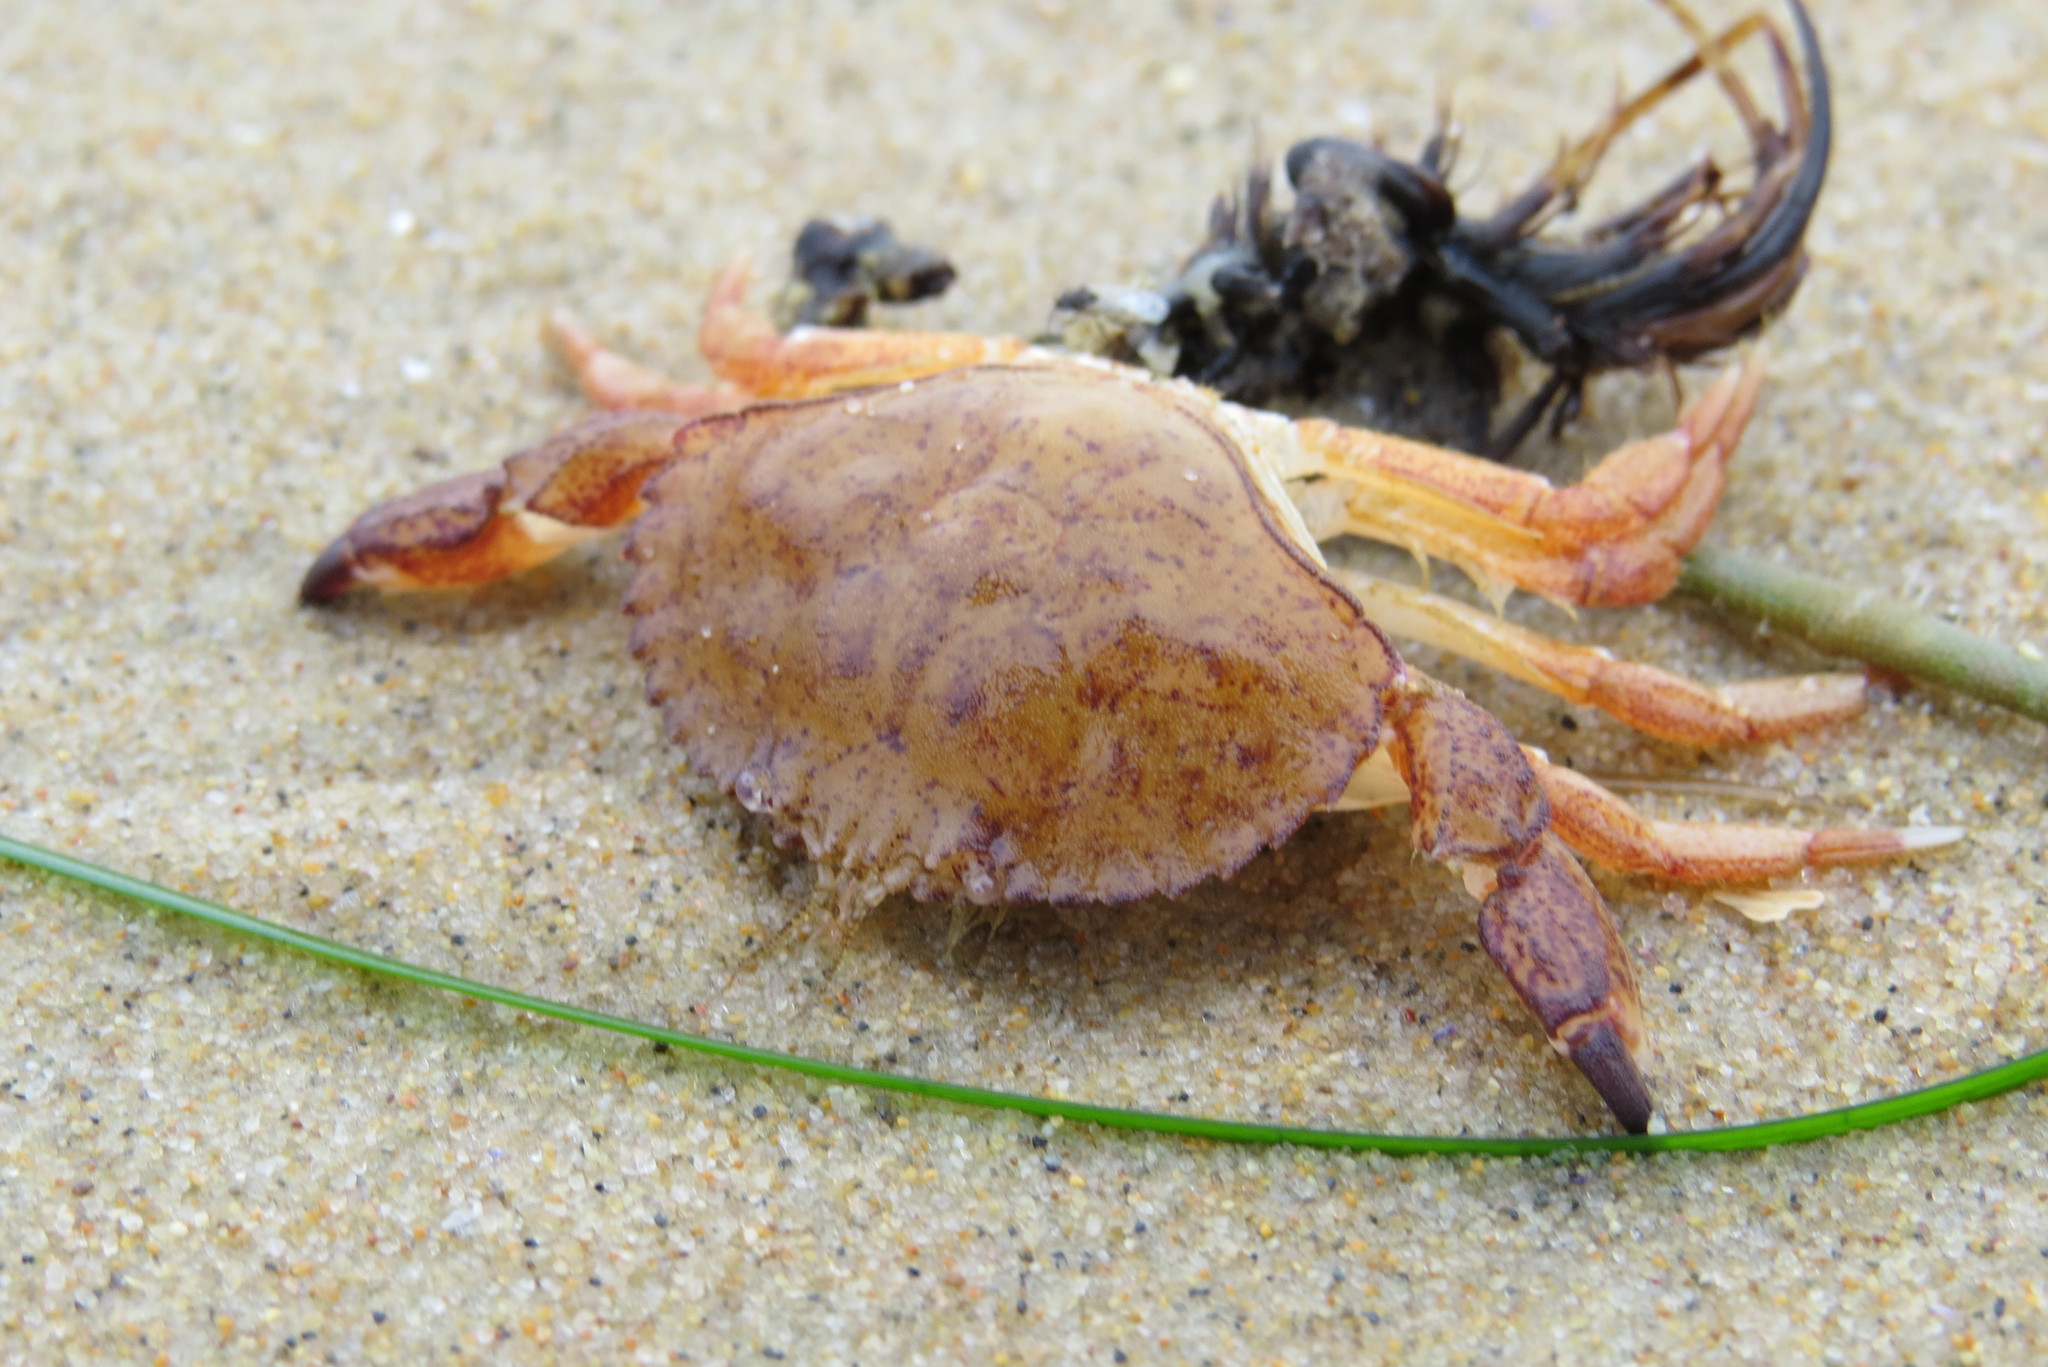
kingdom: Animalia
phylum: Arthropoda
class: Malacostraca
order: Decapoda
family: Cancridae
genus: Metacarcinus
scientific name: Metacarcinus anthonyi
